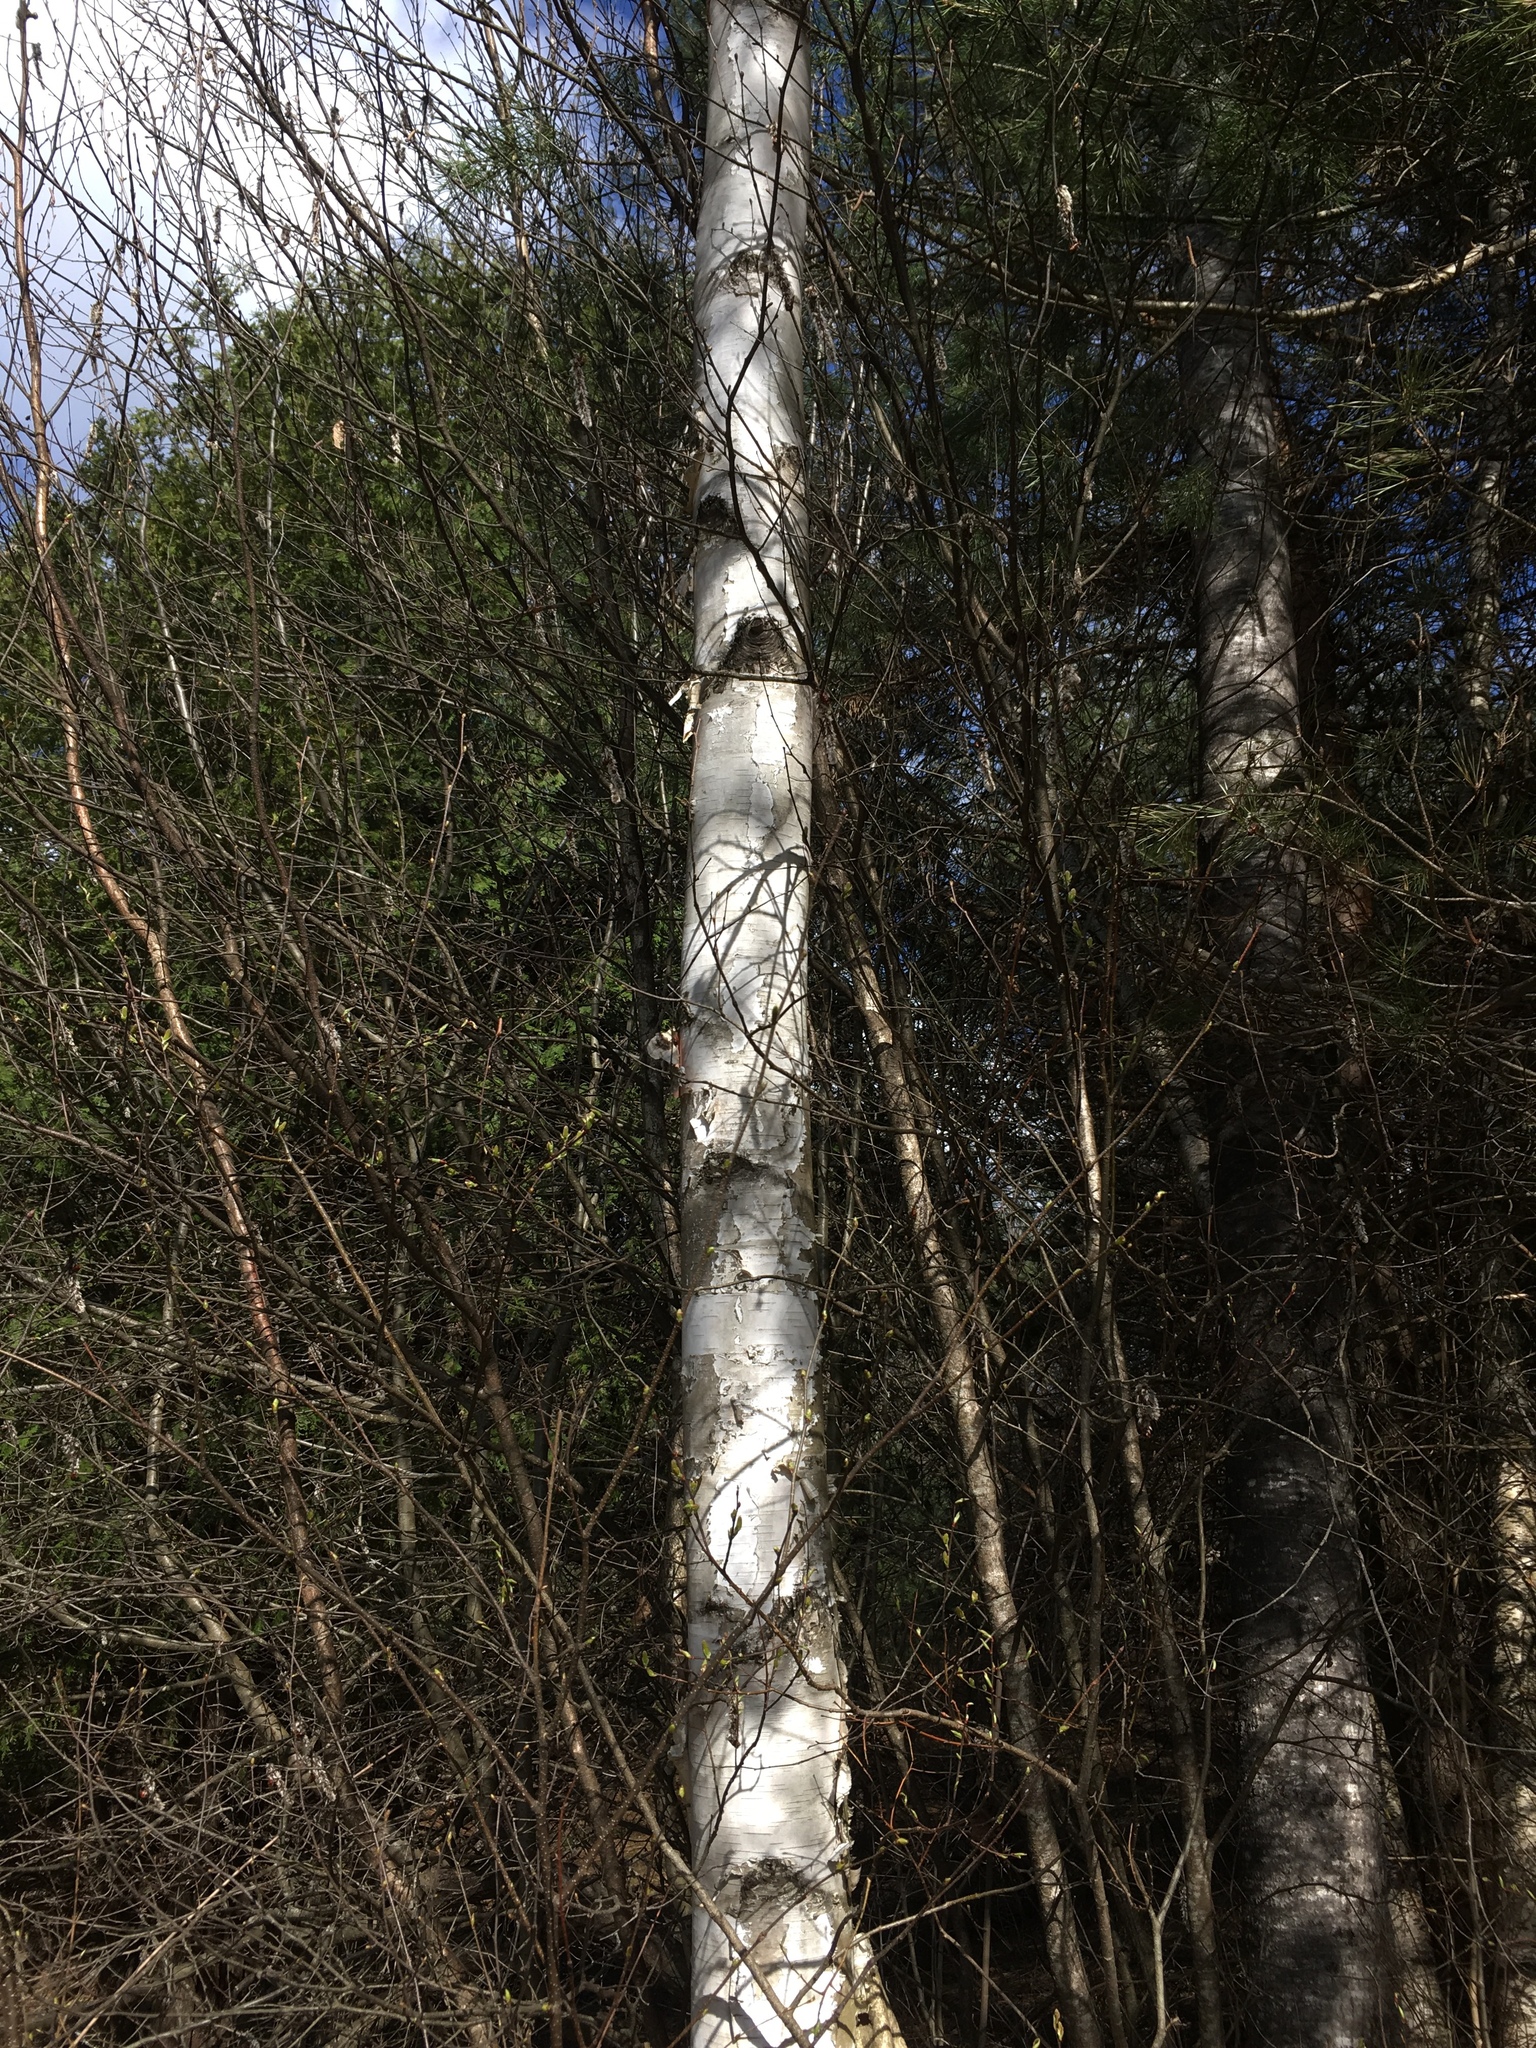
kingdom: Plantae
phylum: Tracheophyta
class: Magnoliopsida
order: Fagales
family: Betulaceae
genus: Betula
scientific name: Betula papyrifera
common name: Paper birch
